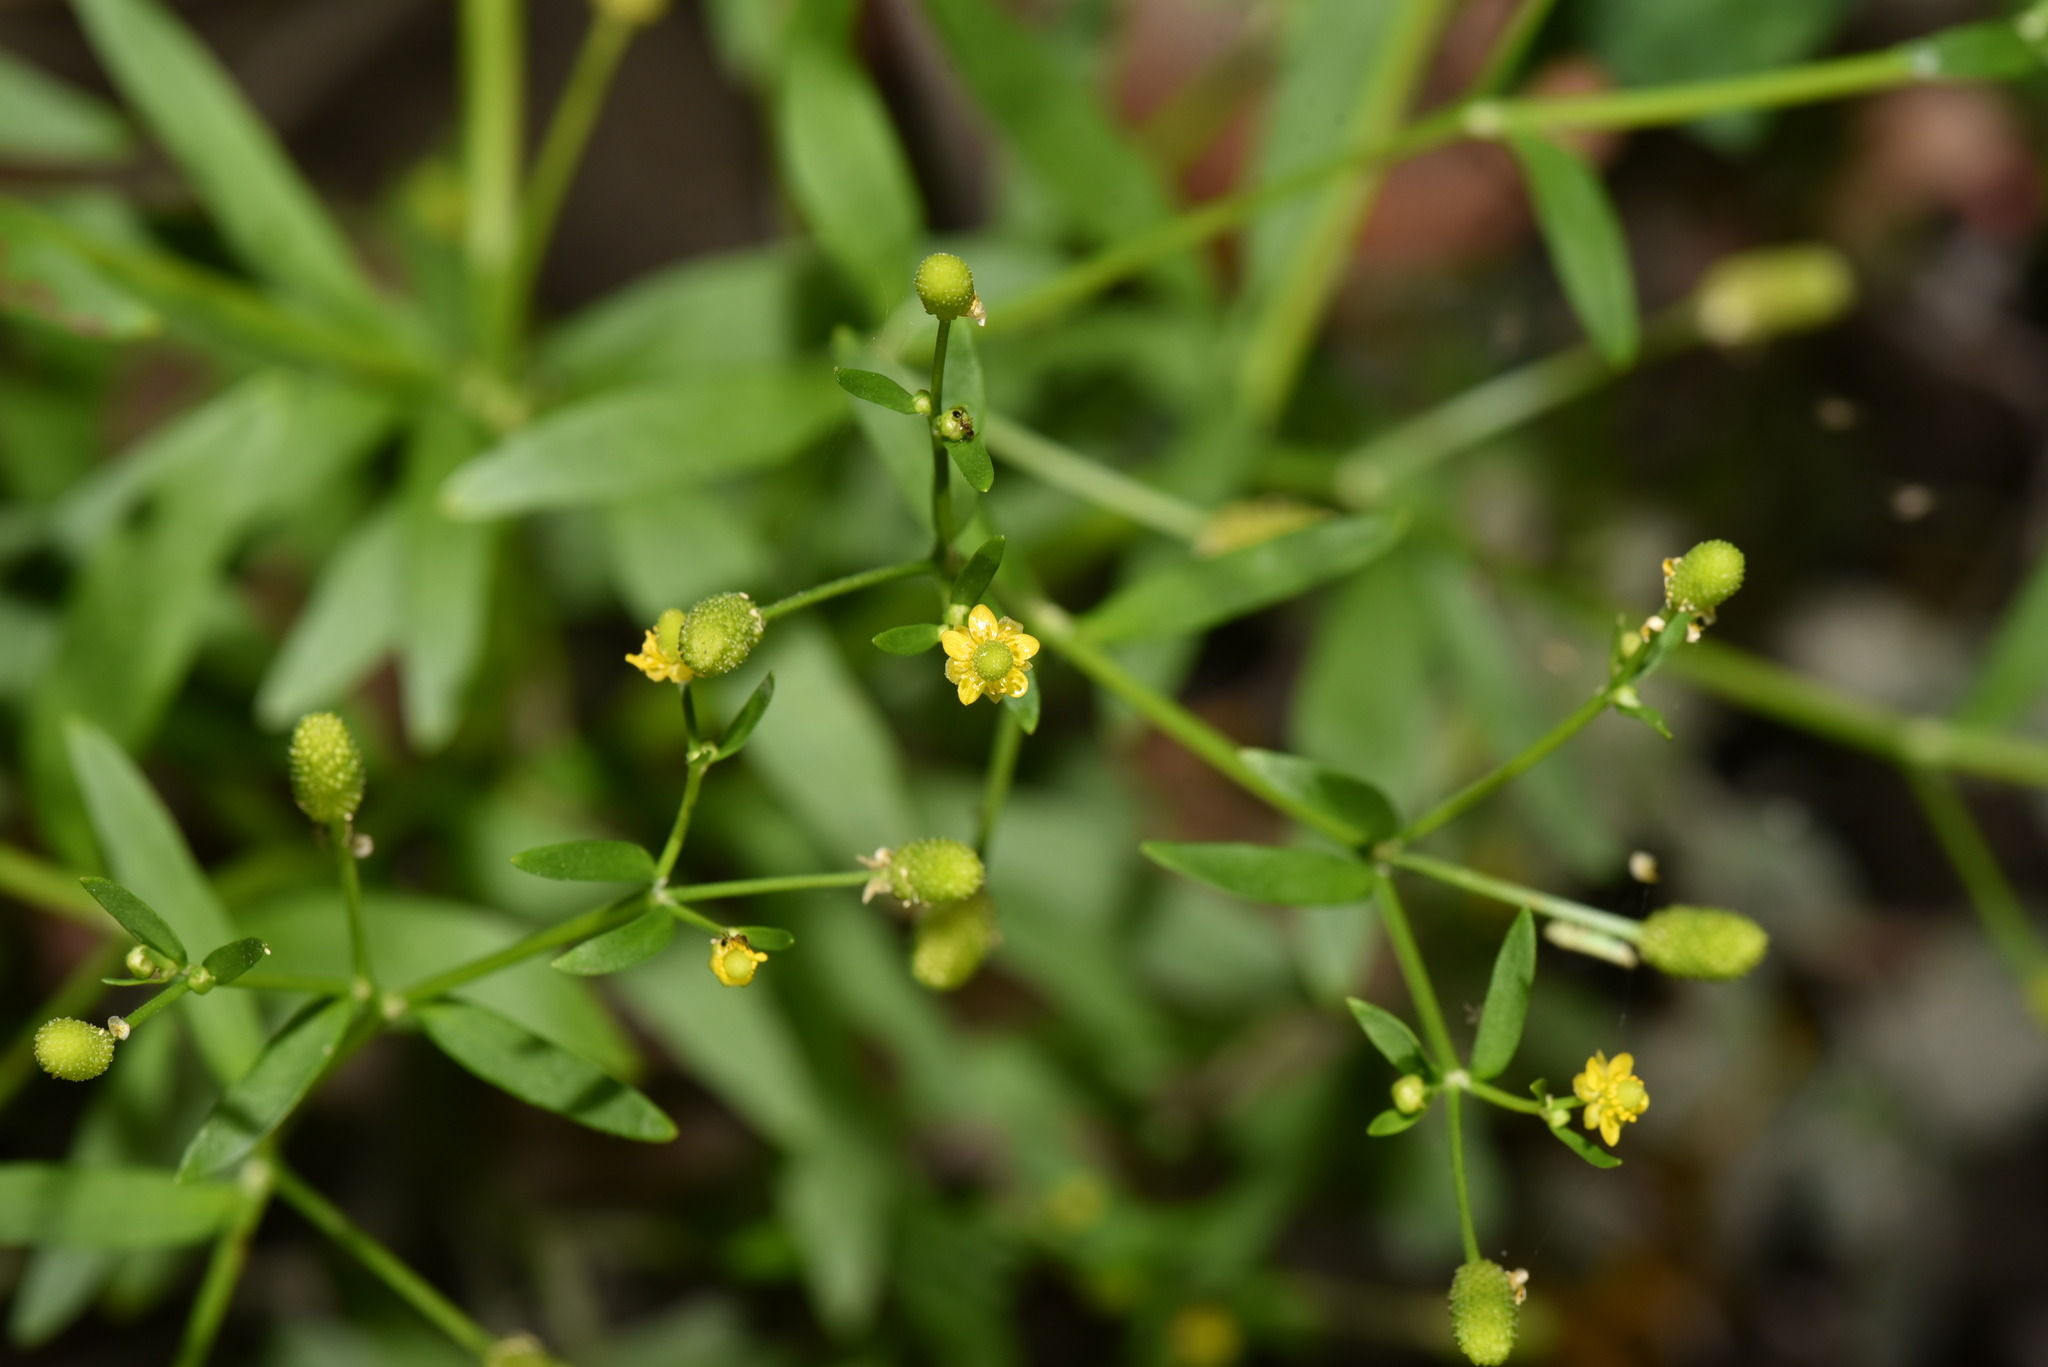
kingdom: Plantae
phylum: Tracheophyta
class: Magnoliopsida
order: Ranunculales
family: Ranunculaceae
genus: Ranunculus
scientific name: Ranunculus sceleratus
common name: Celery-leaved buttercup
